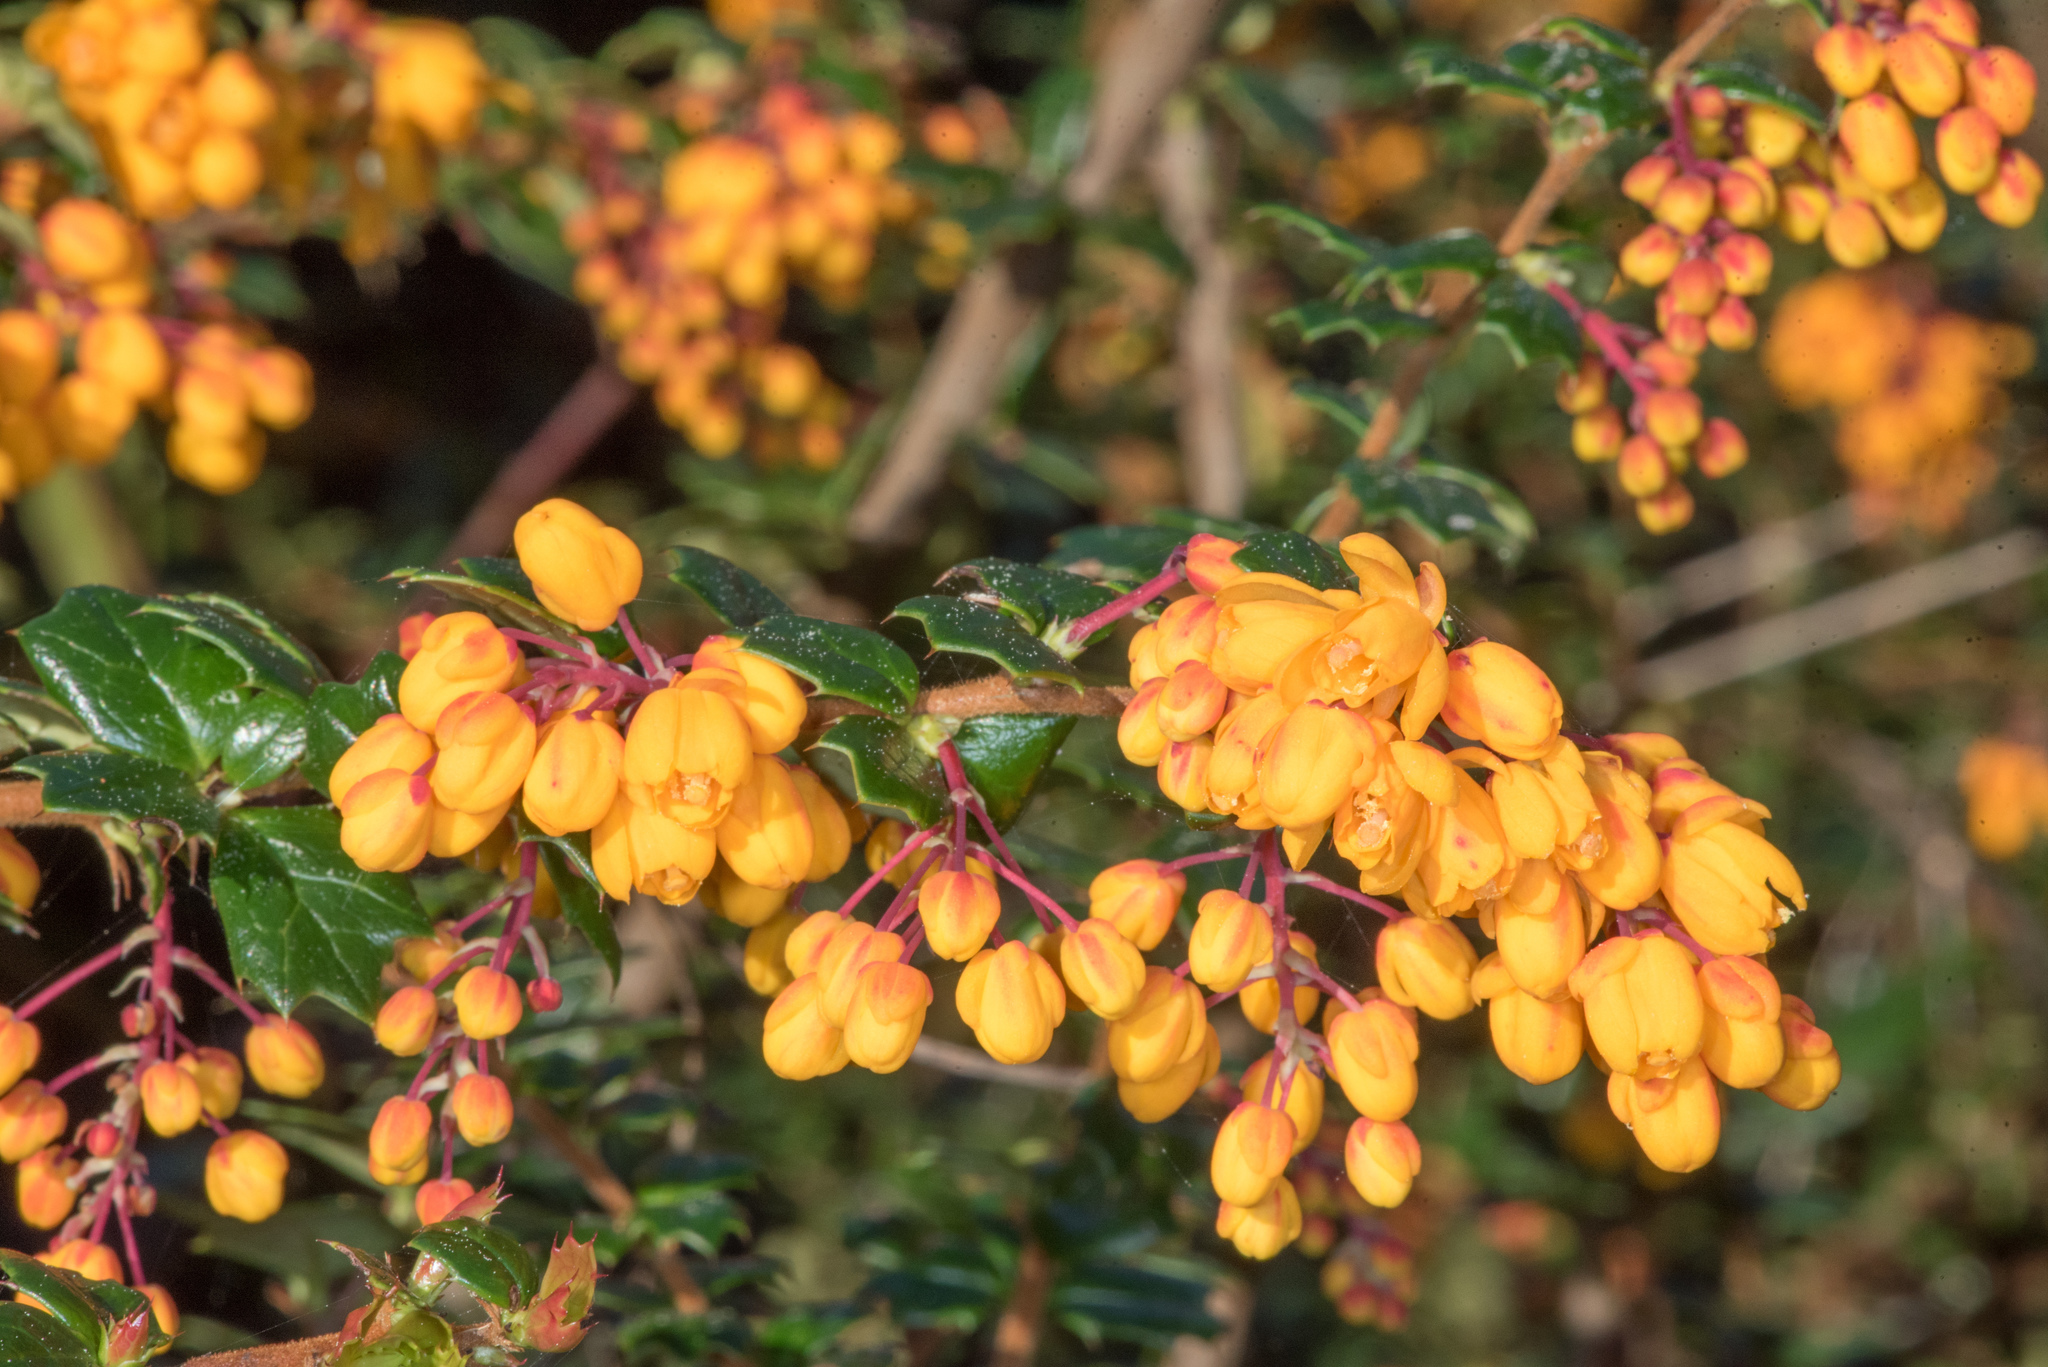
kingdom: Plantae
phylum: Tracheophyta
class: Magnoliopsida
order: Ranunculales
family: Berberidaceae
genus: Berberis
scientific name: Berberis darwinii
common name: Darwin's barberry
